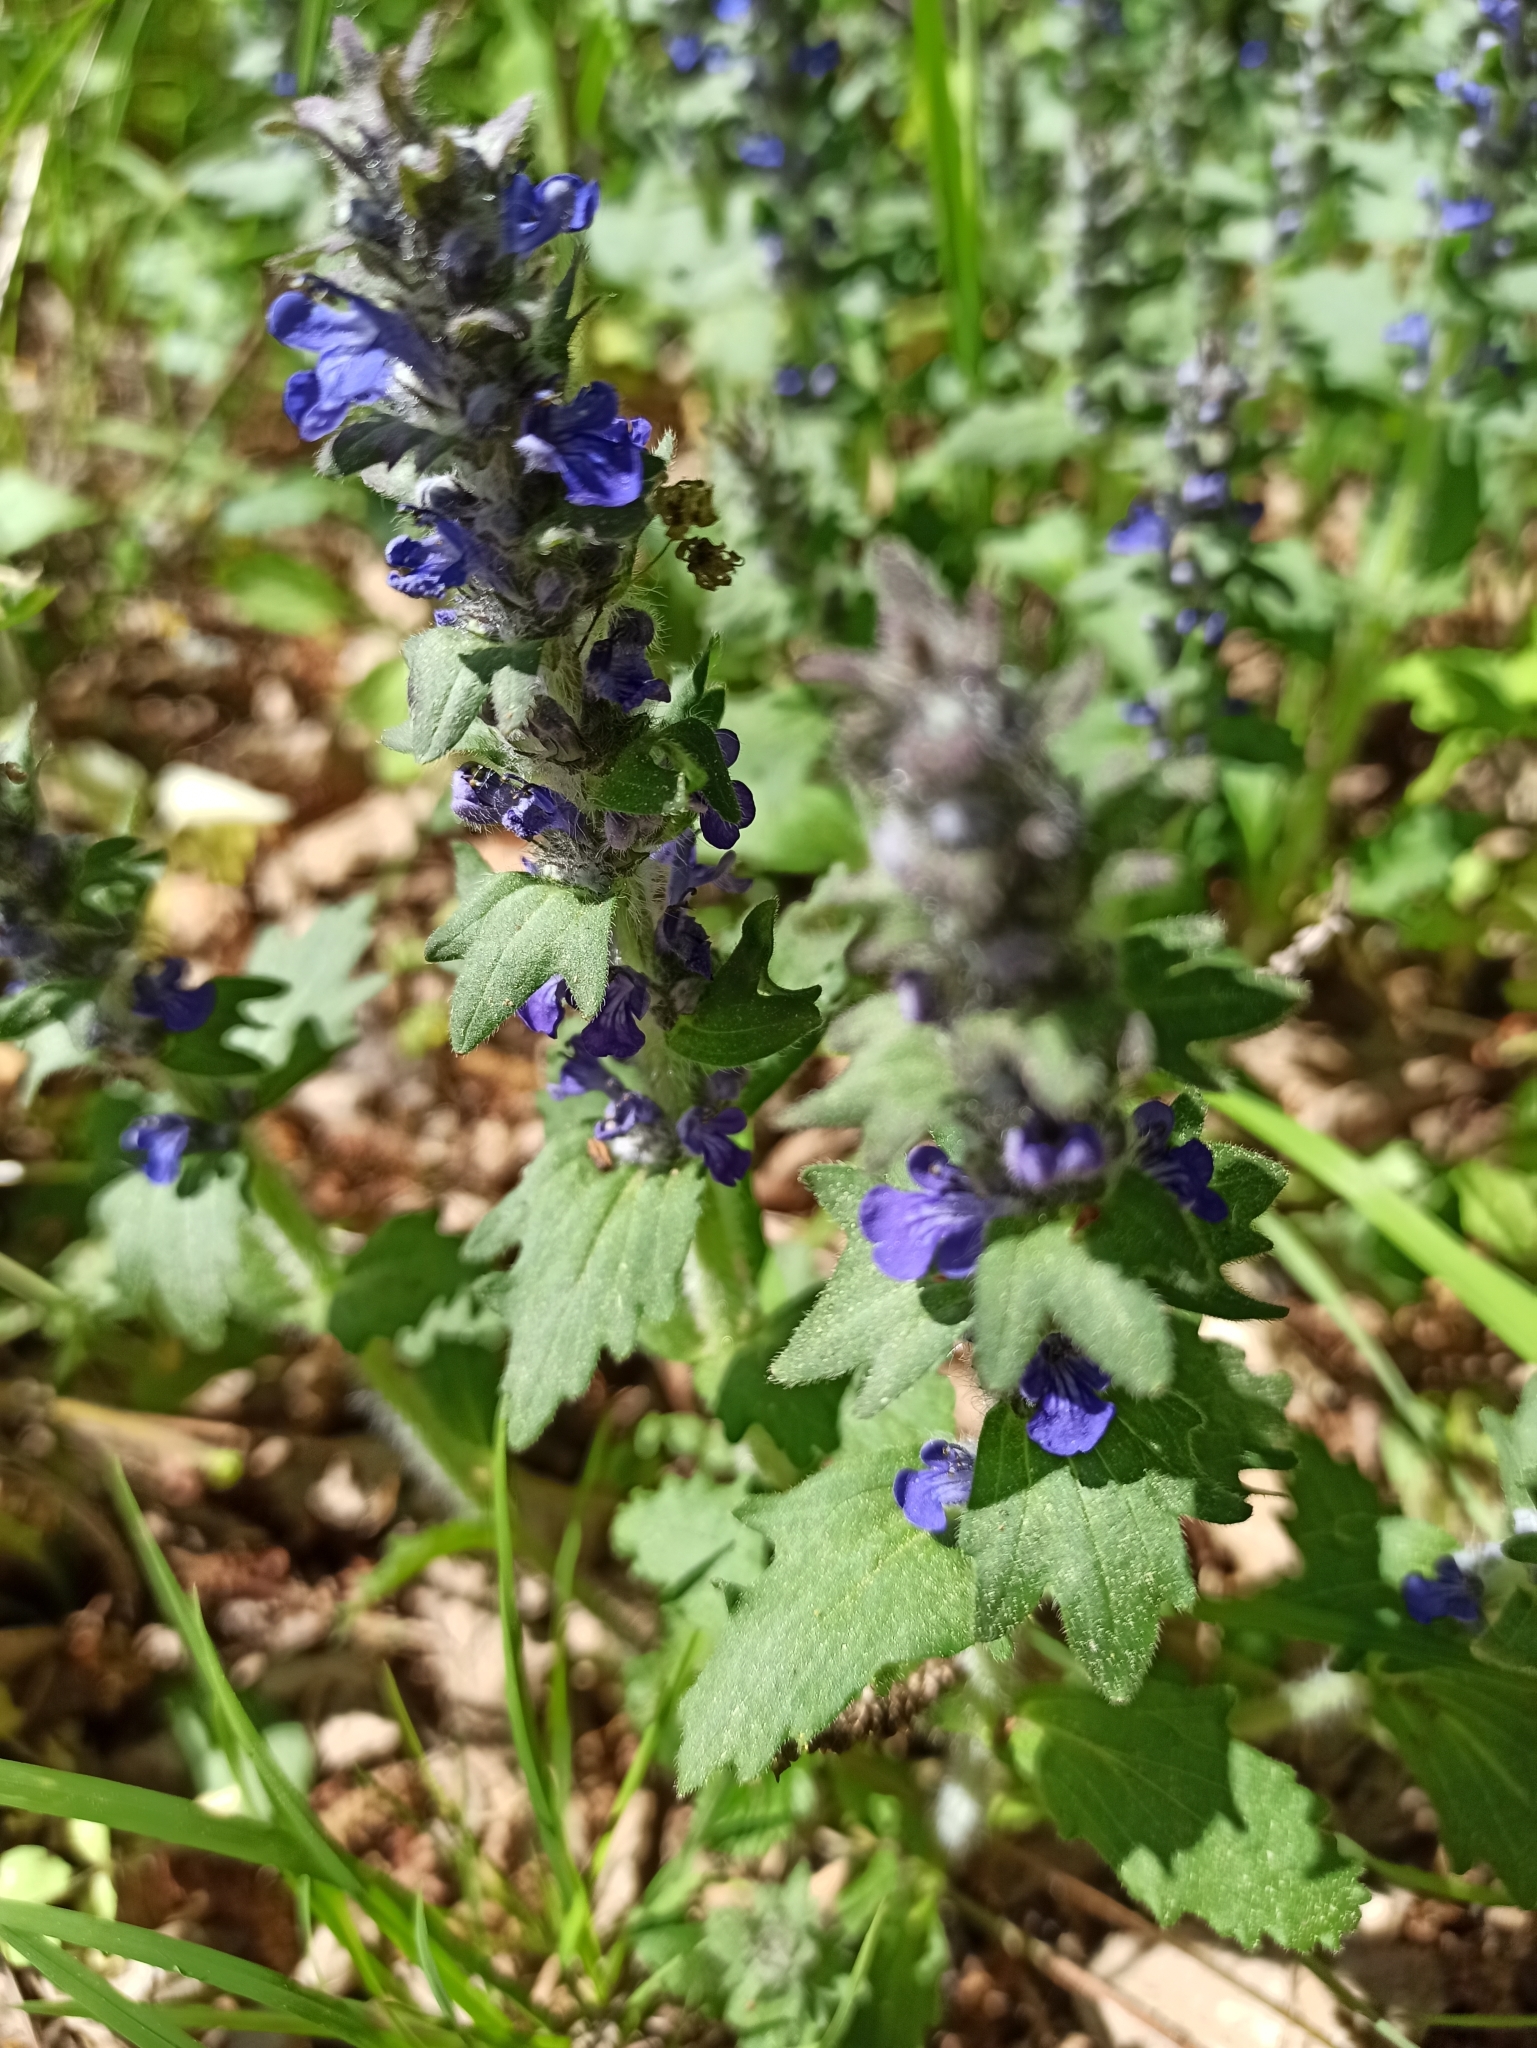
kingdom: Plantae
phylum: Tracheophyta
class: Magnoliopsida
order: Lamiales
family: Lamiaceae
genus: Ajuga
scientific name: Ajuga genevensis
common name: Blue bugle
